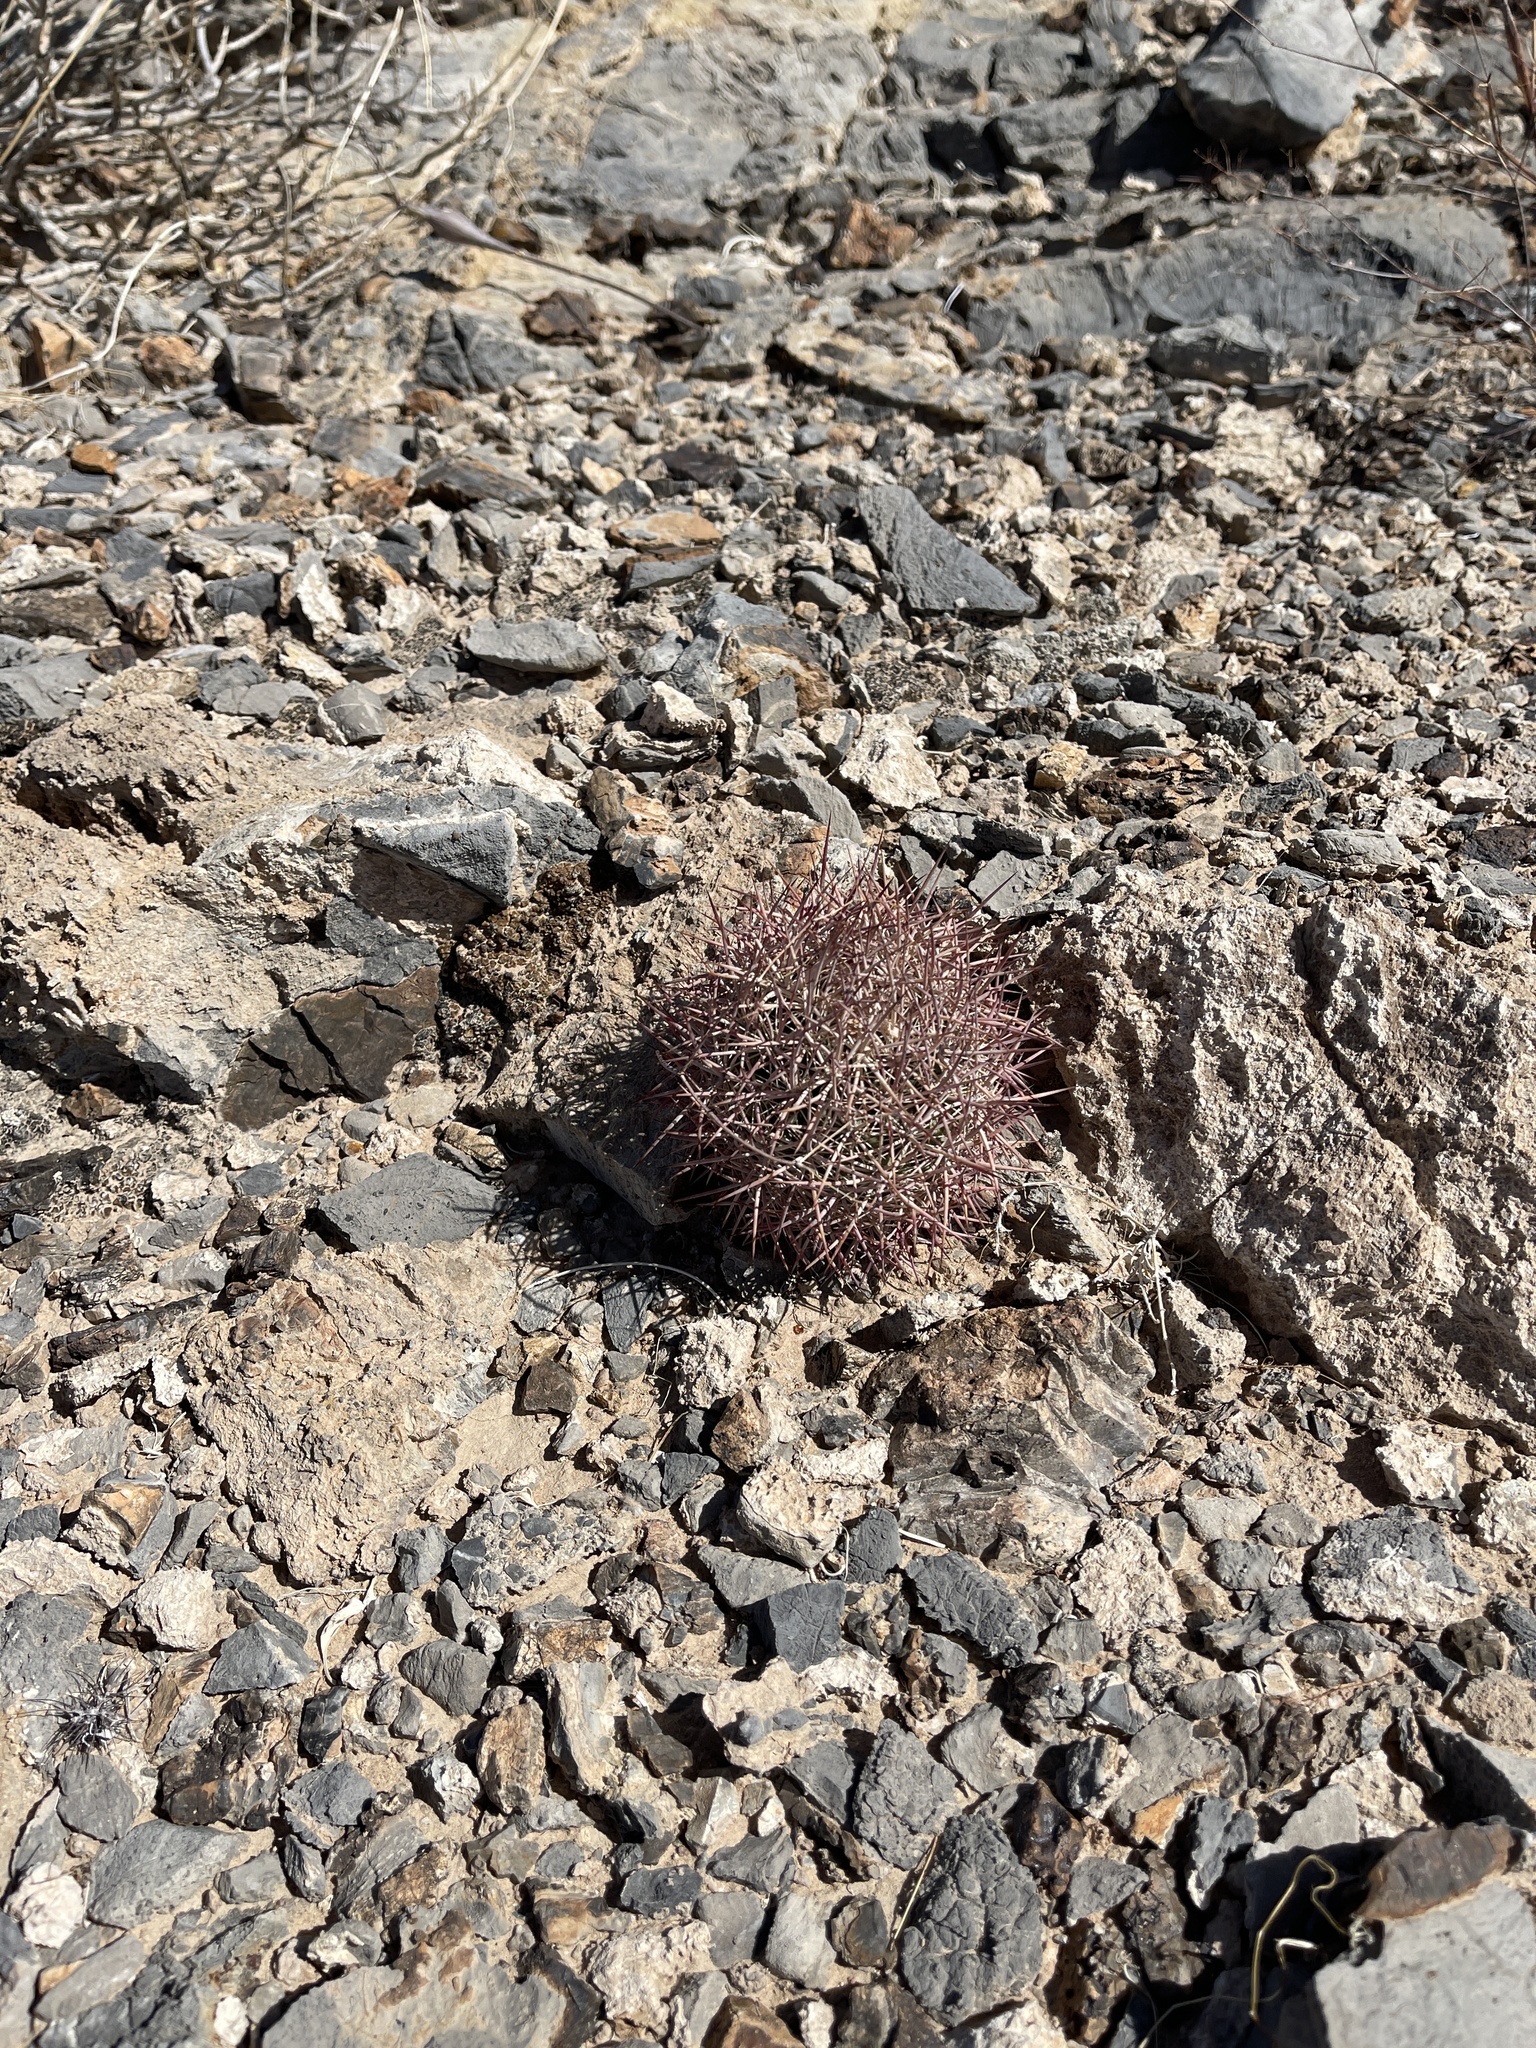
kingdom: Plantae
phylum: Tracheophyta
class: Magnoliopsida
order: Caryophyllales
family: Cactaceae
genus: Sclerocactus
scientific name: Sclerocactus johnsonii
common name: Eight-spine fishhook cactus
